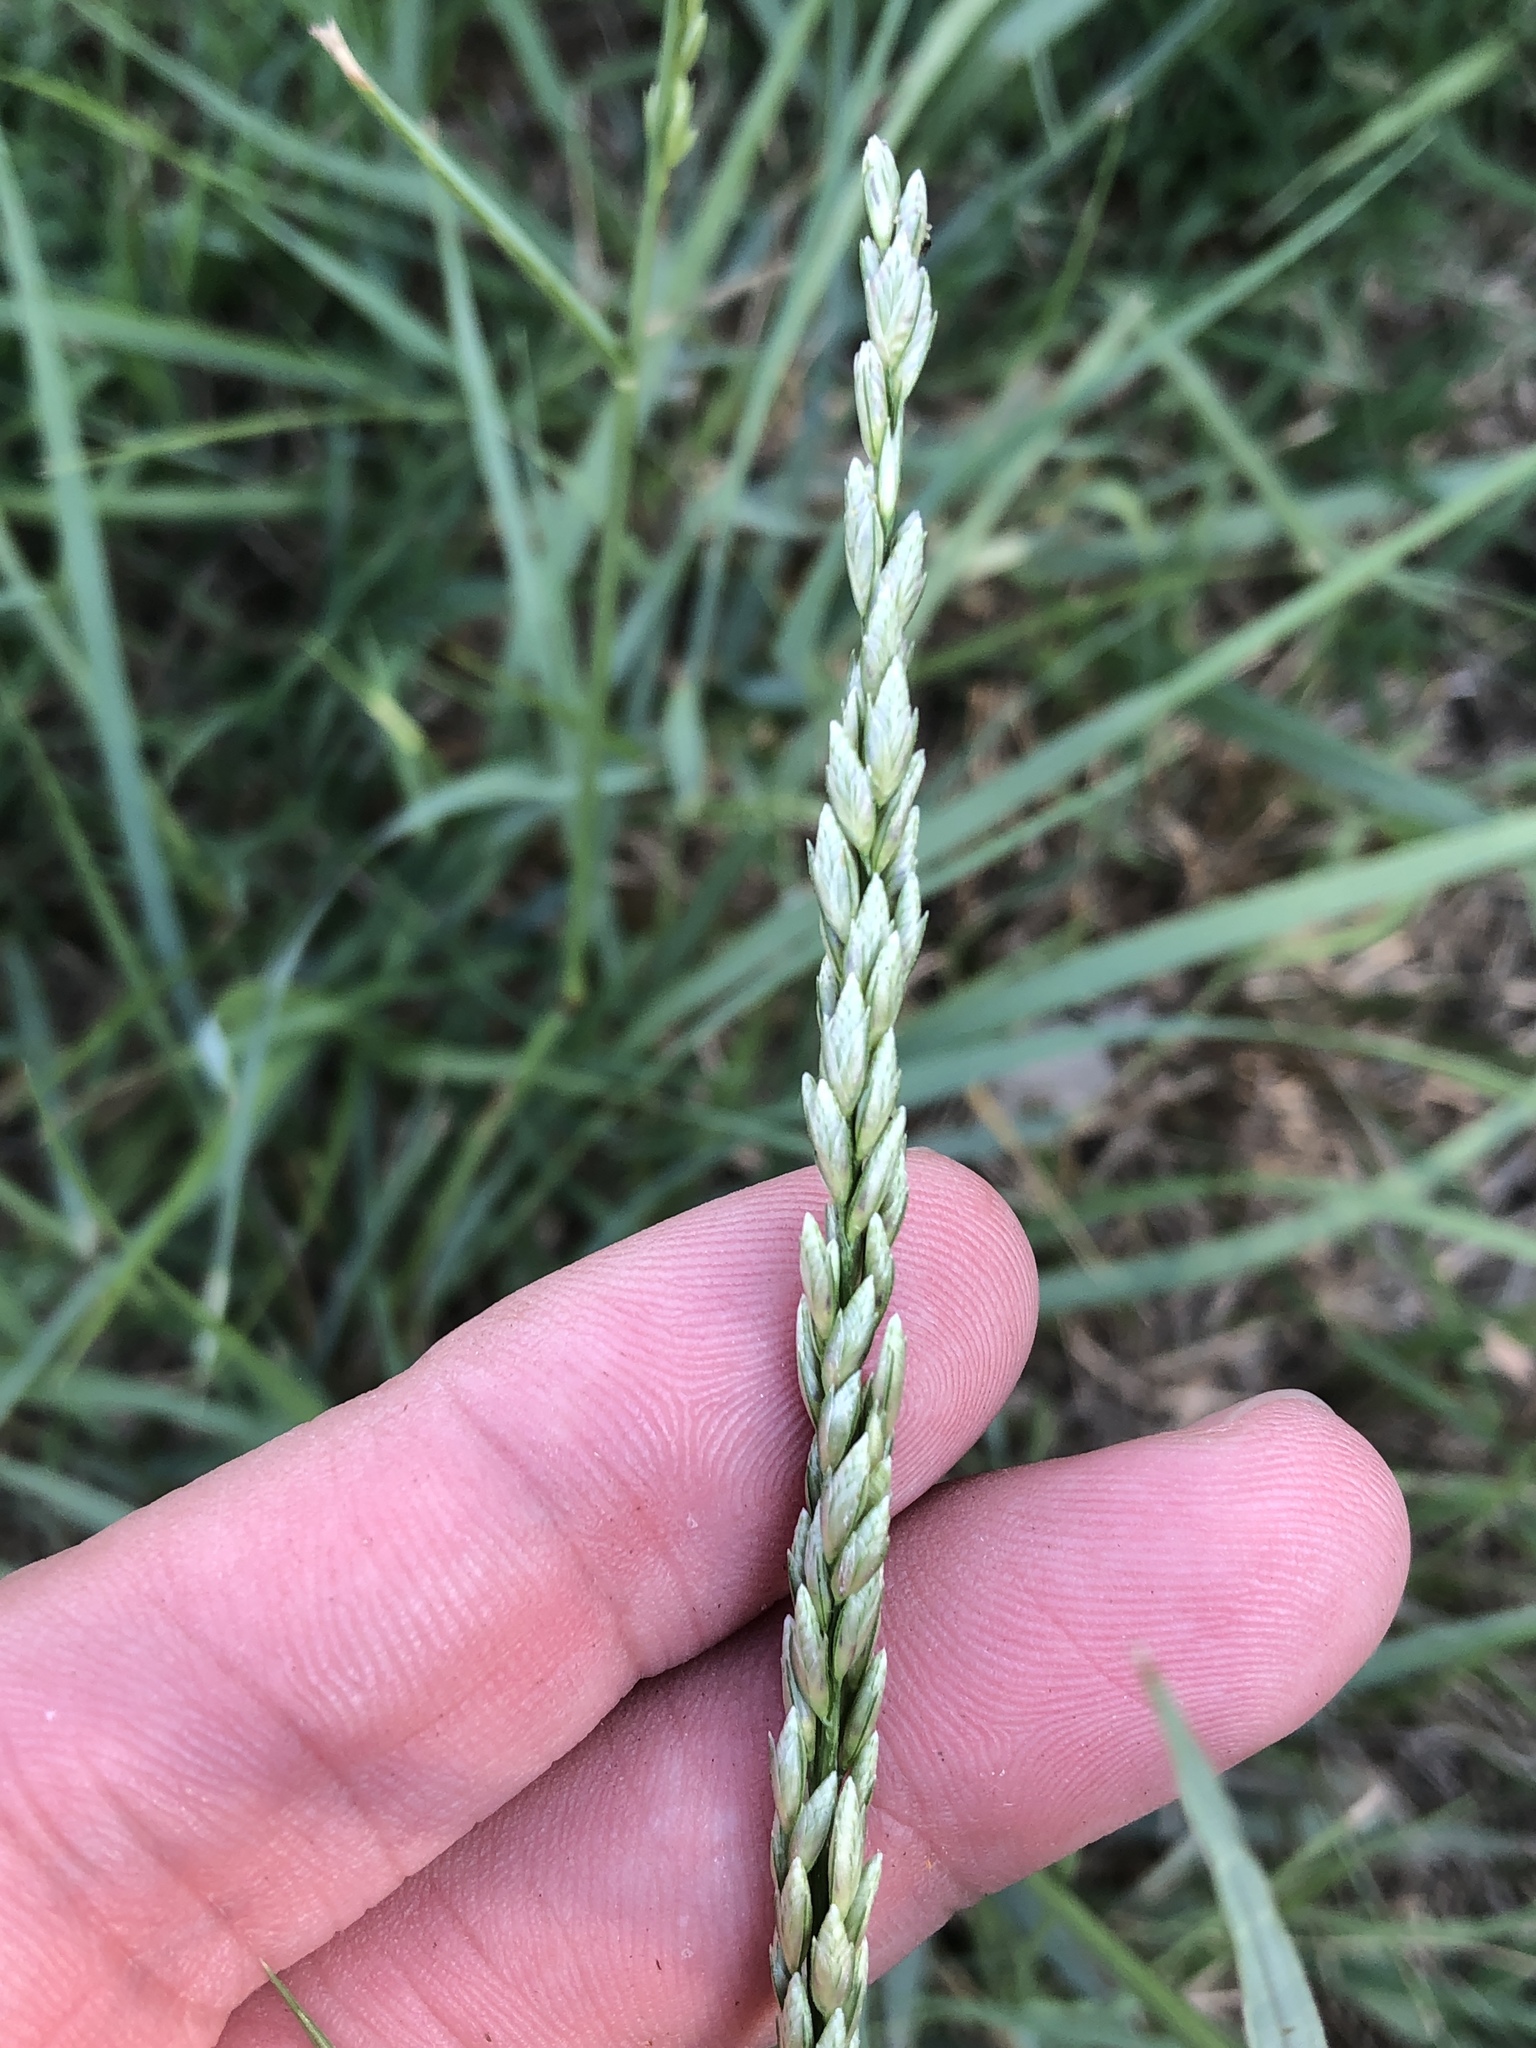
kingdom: Plantae
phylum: Tracheophyta
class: Liliopsida
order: Poales
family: Poaceae
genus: Tridens
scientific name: Tridens albescens
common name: White tridens
